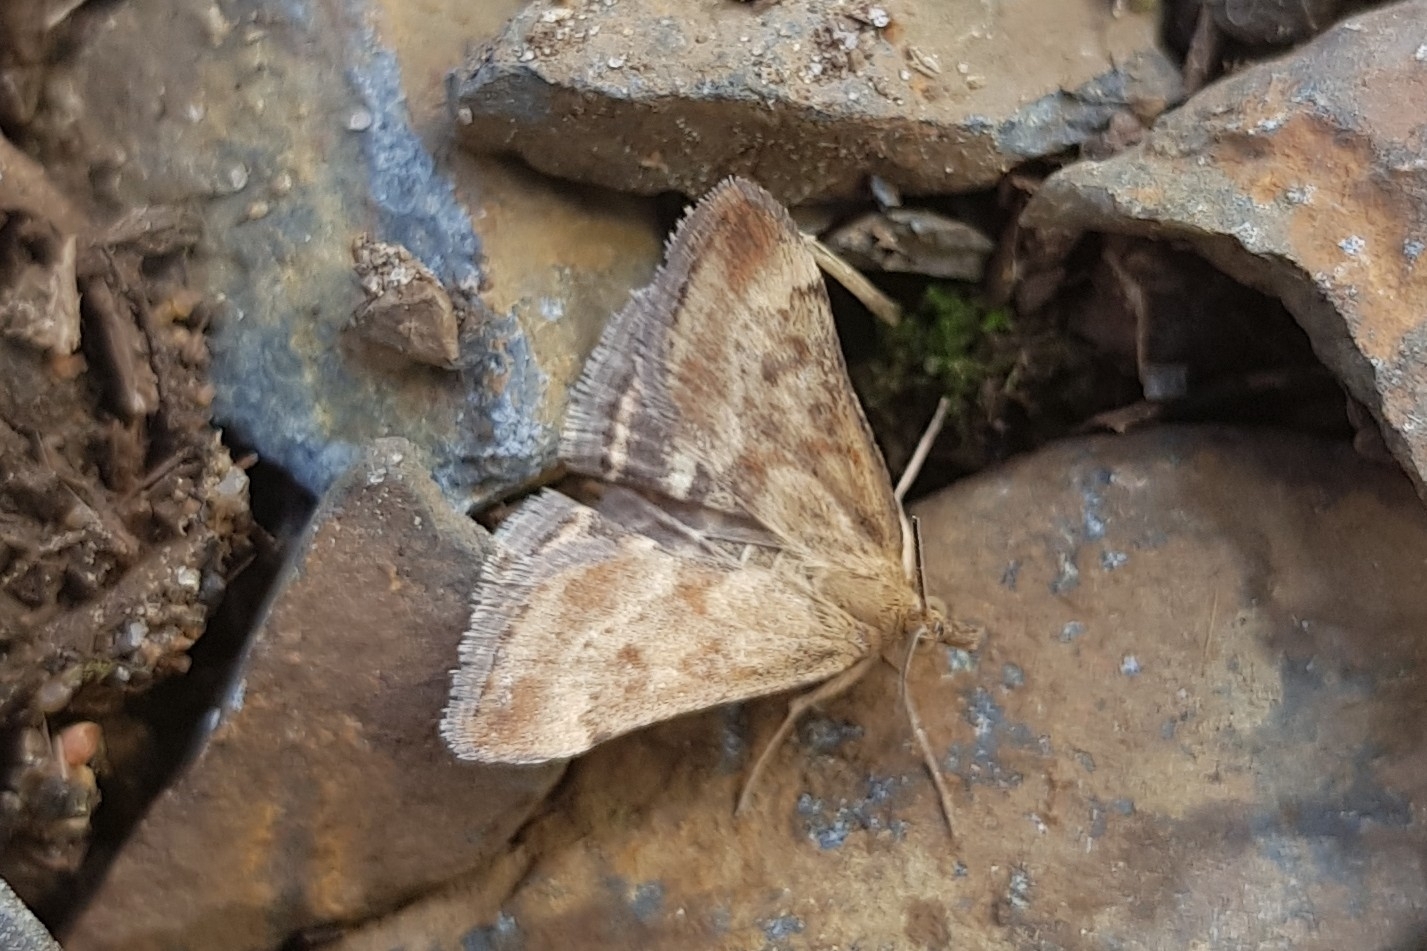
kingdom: Animalia
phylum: Arthropoda
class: Insecta
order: Lepidoptera
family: Crambidae
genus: Pyrausta
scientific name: Pyrausta despicata
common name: Straw-barred pearl
